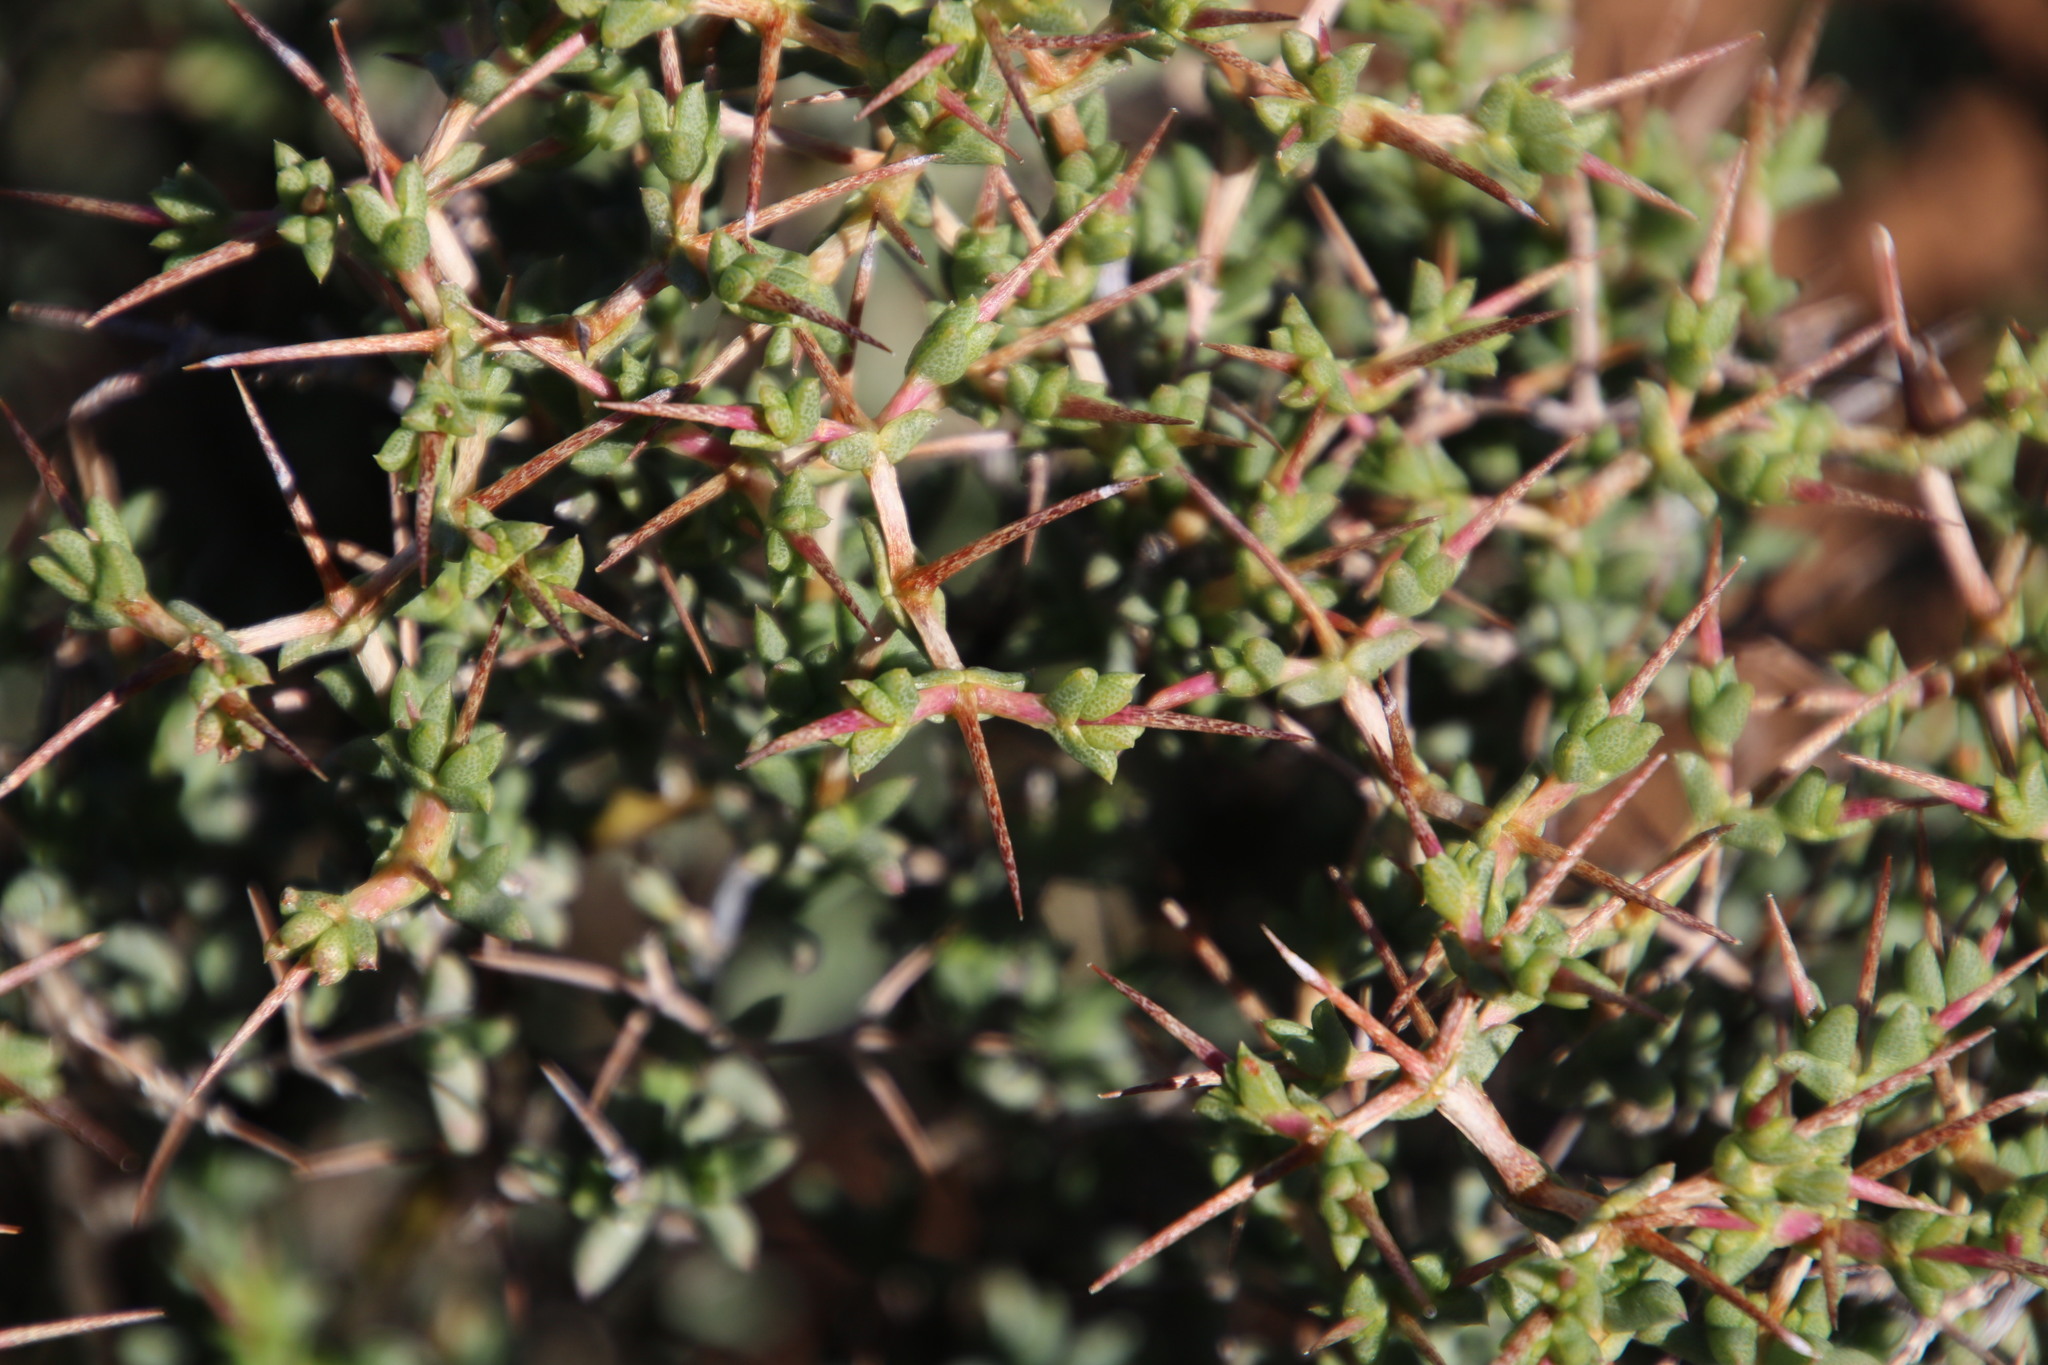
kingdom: Plantae
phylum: Tracheophyta
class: Magnoliopsida
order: Caryophyllales
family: Aizoaceae
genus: Ruschia
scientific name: Ruschia divaricata
